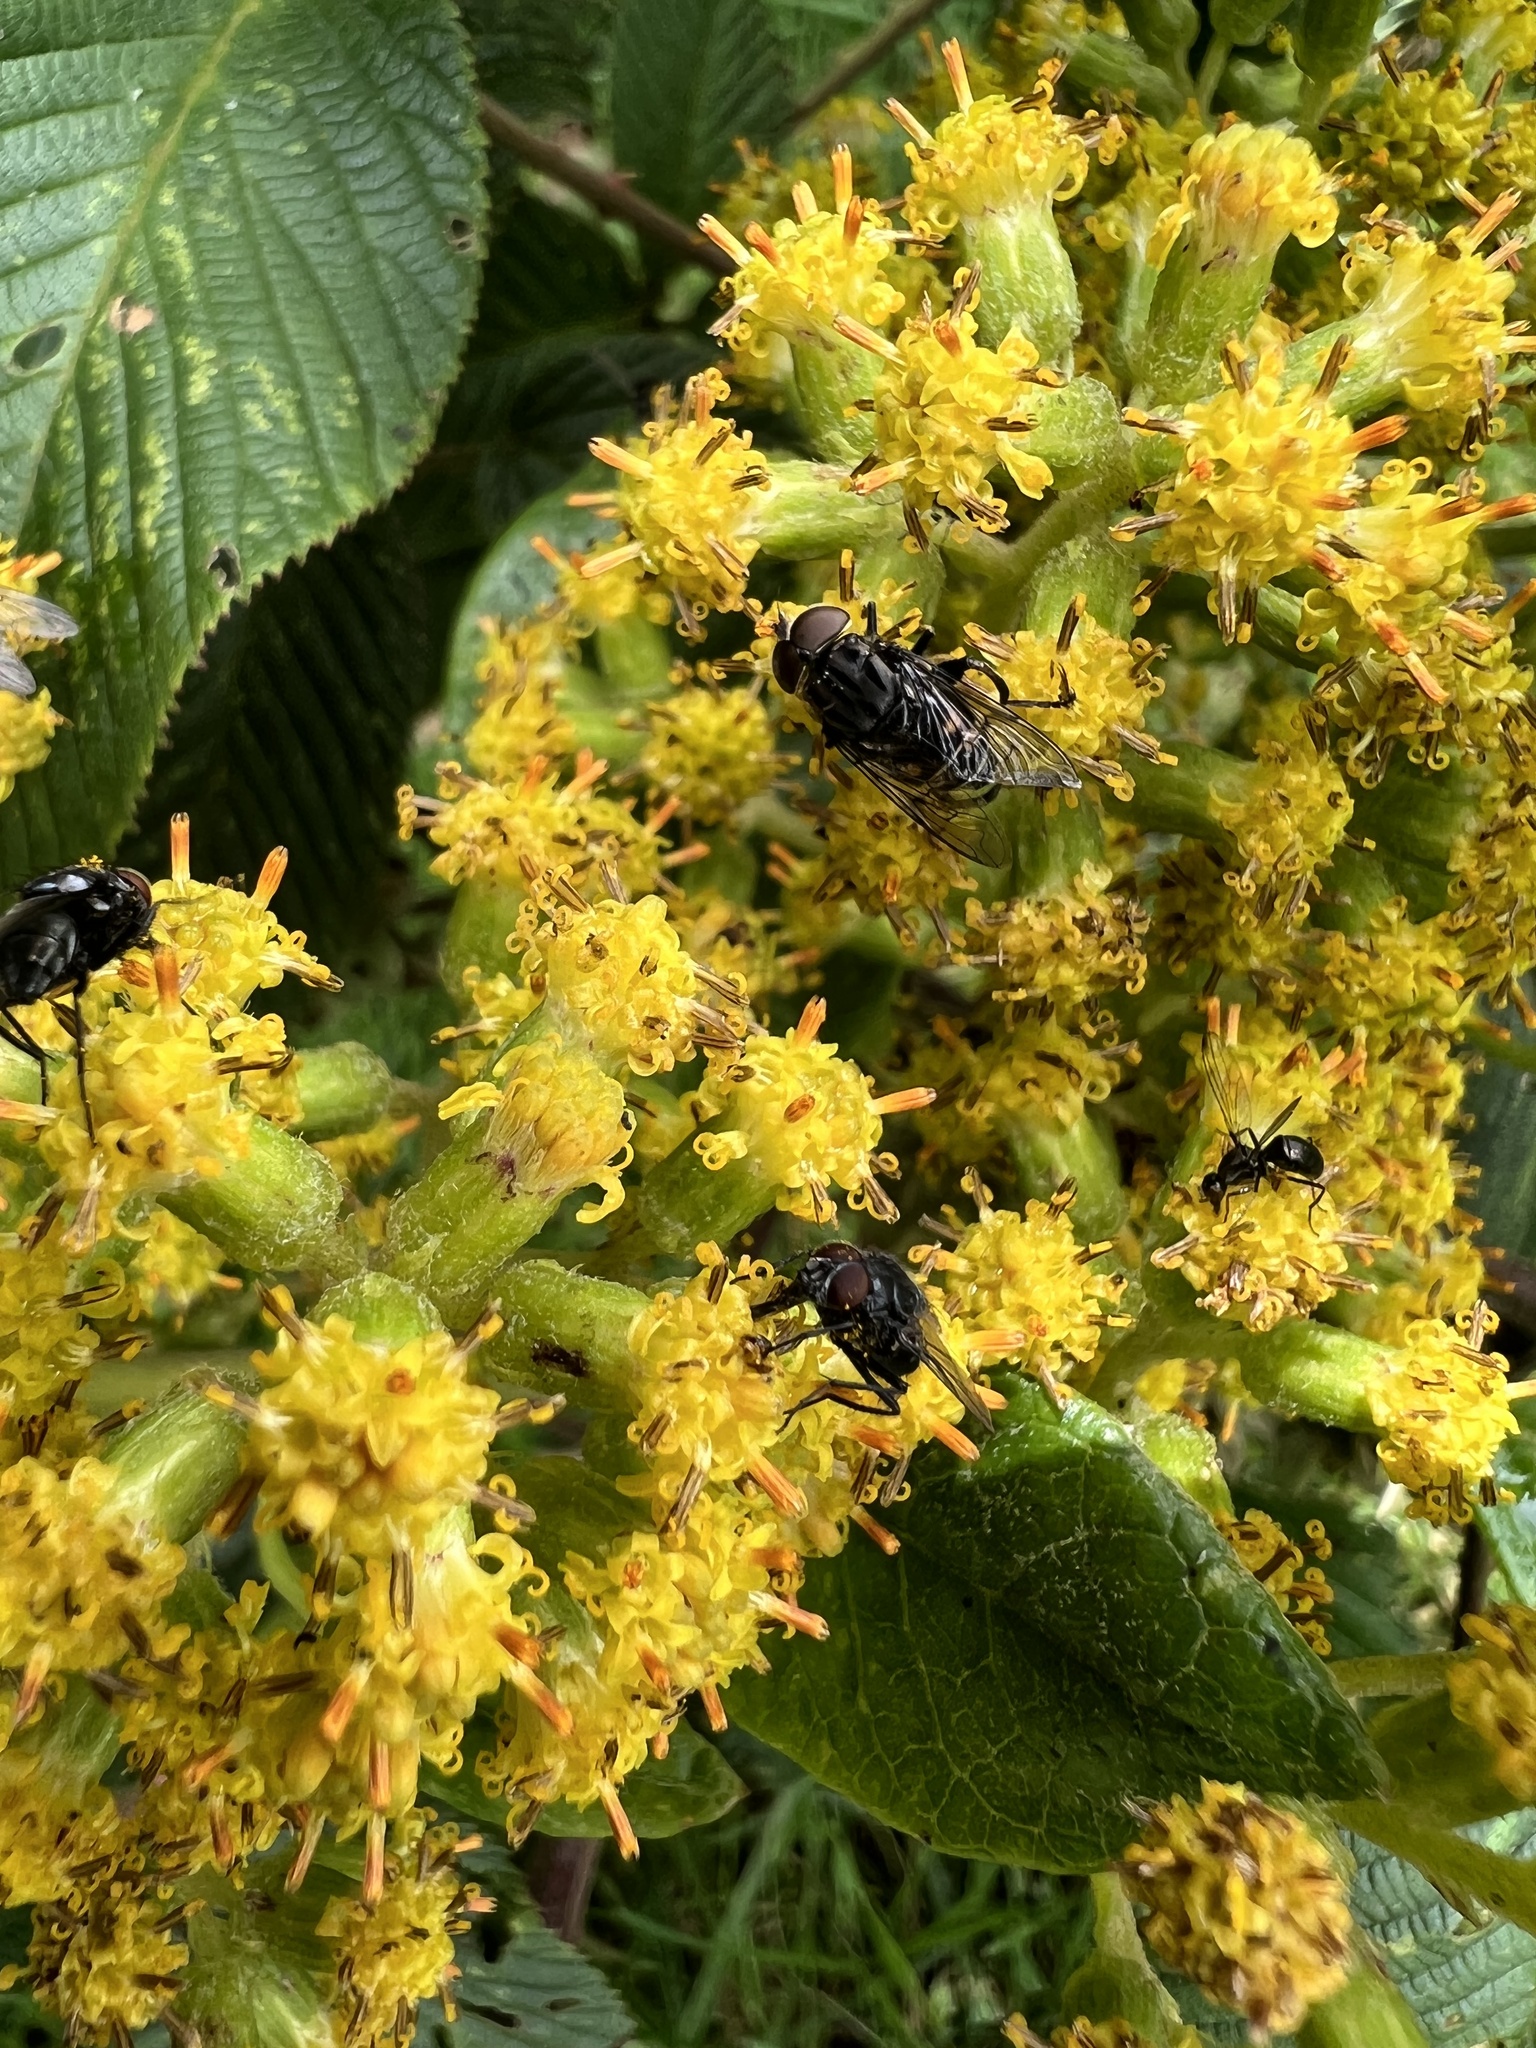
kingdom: Animalia
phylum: Arthropoda
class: Insecta
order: Diptera
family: Syrphidae
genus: Palpada
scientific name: Palpada furcata
